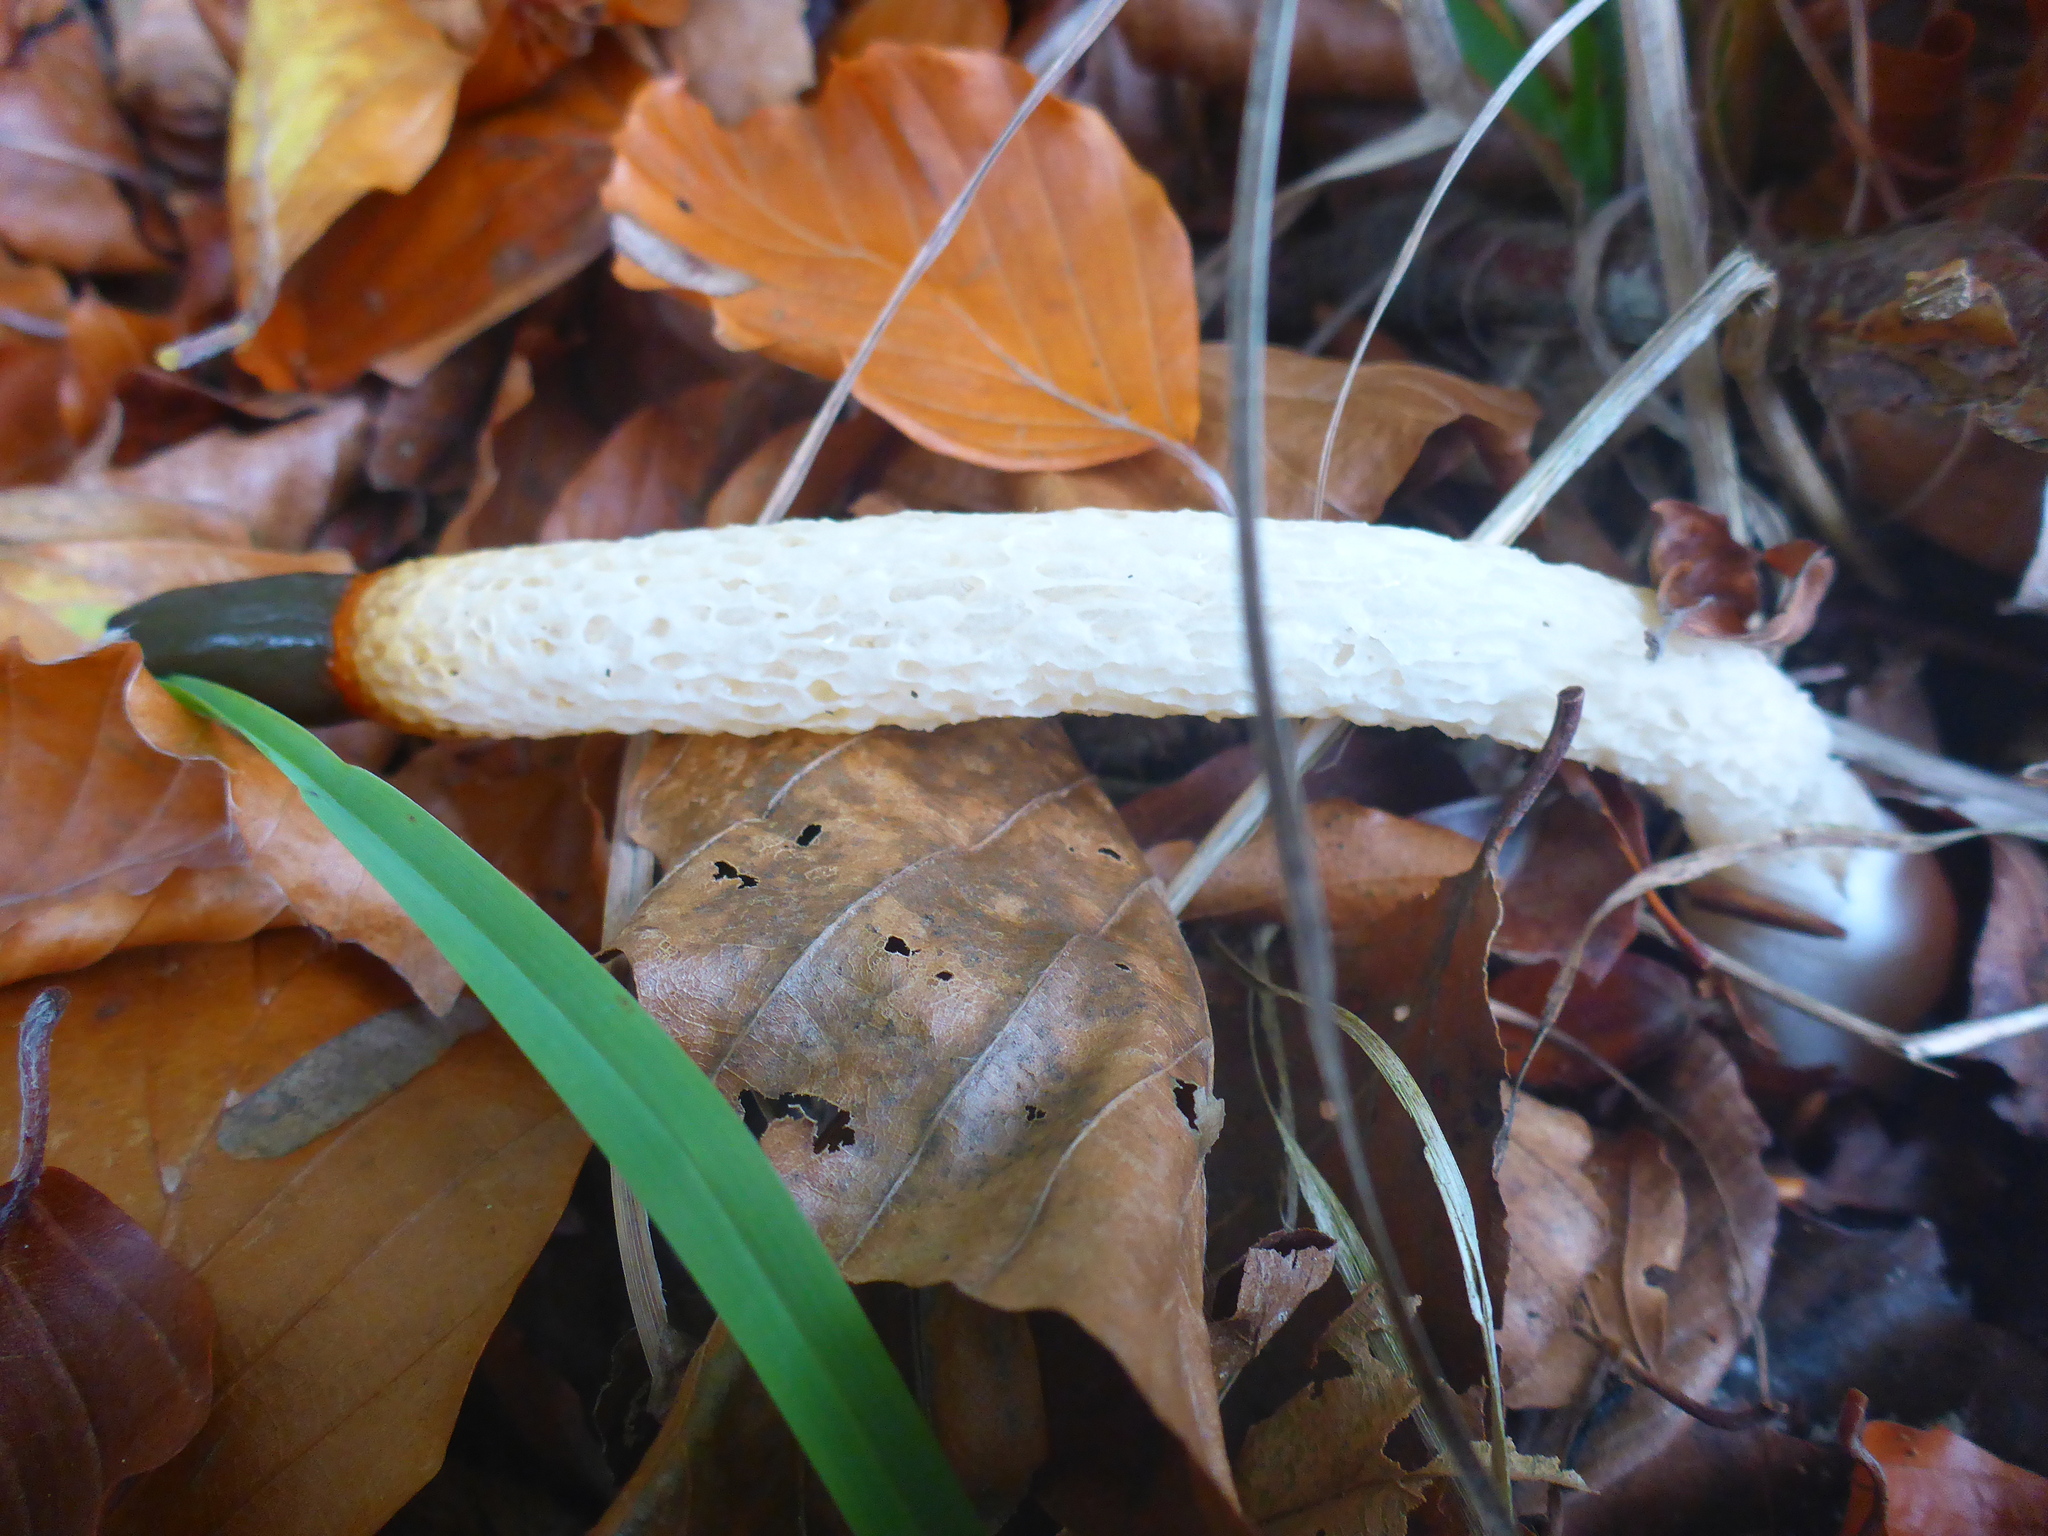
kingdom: Fungi
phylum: Basidiomycota
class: Agaricomycetes
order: Phallales
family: Phallaceae
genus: Mutinus
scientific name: Mutinus caninus
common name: Dog stinkhorn
